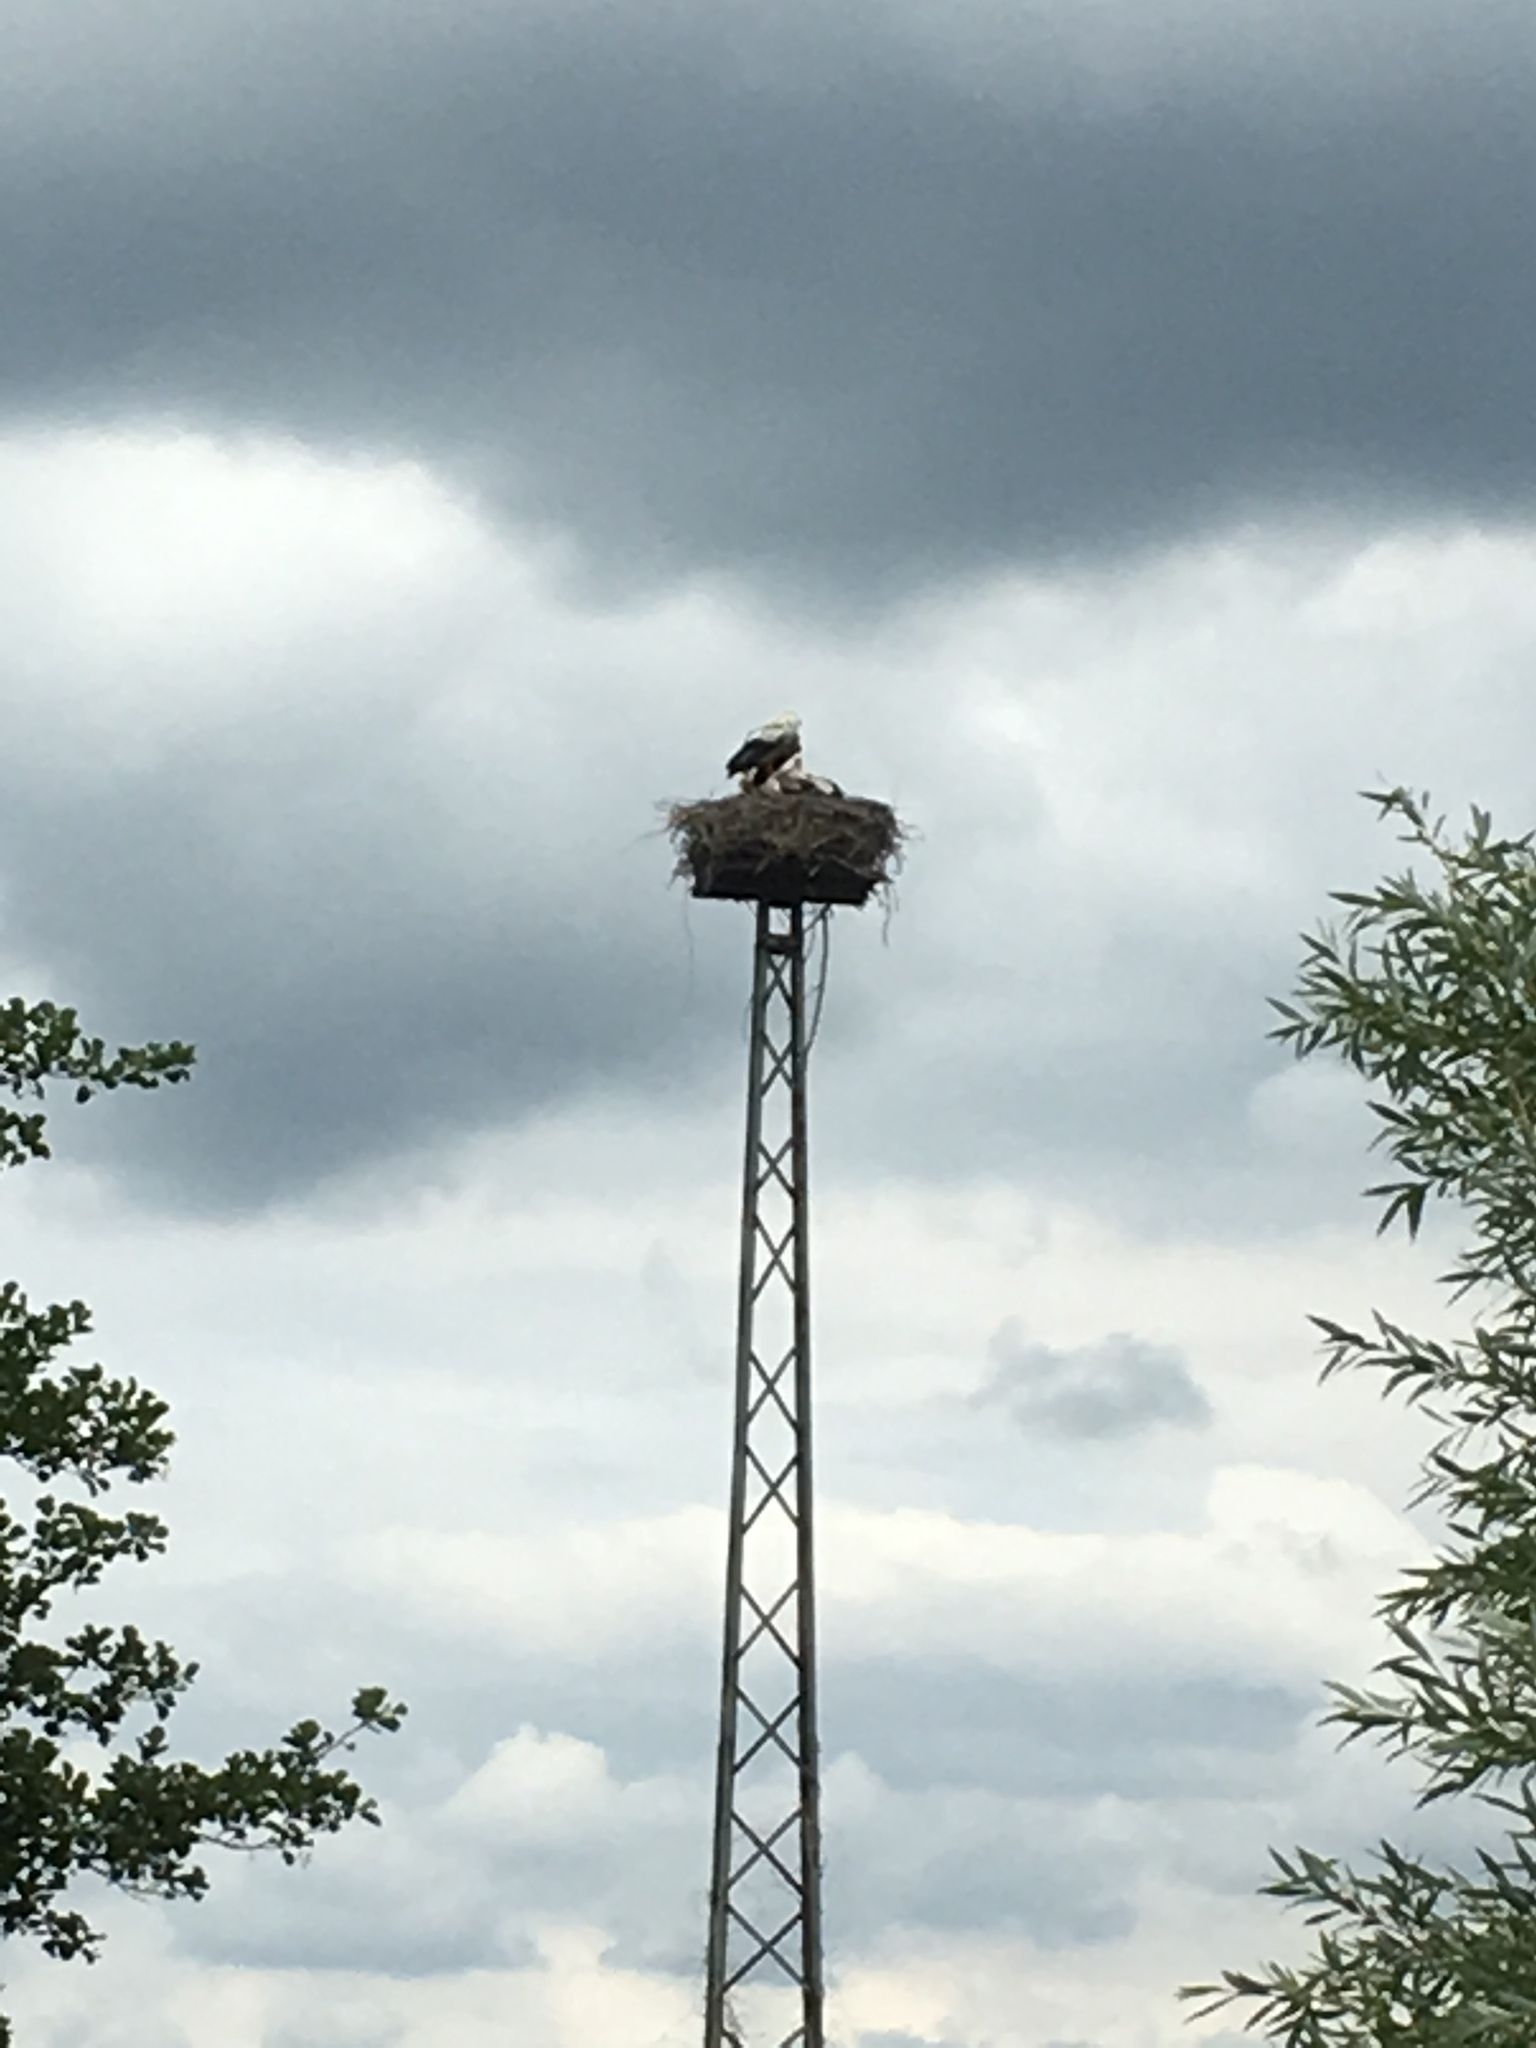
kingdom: Animalia
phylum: Chordata
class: Aves
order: Ciconiiformes
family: Ciconiidae
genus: Ciconia
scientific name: Ciconia ciconia
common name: White stork
